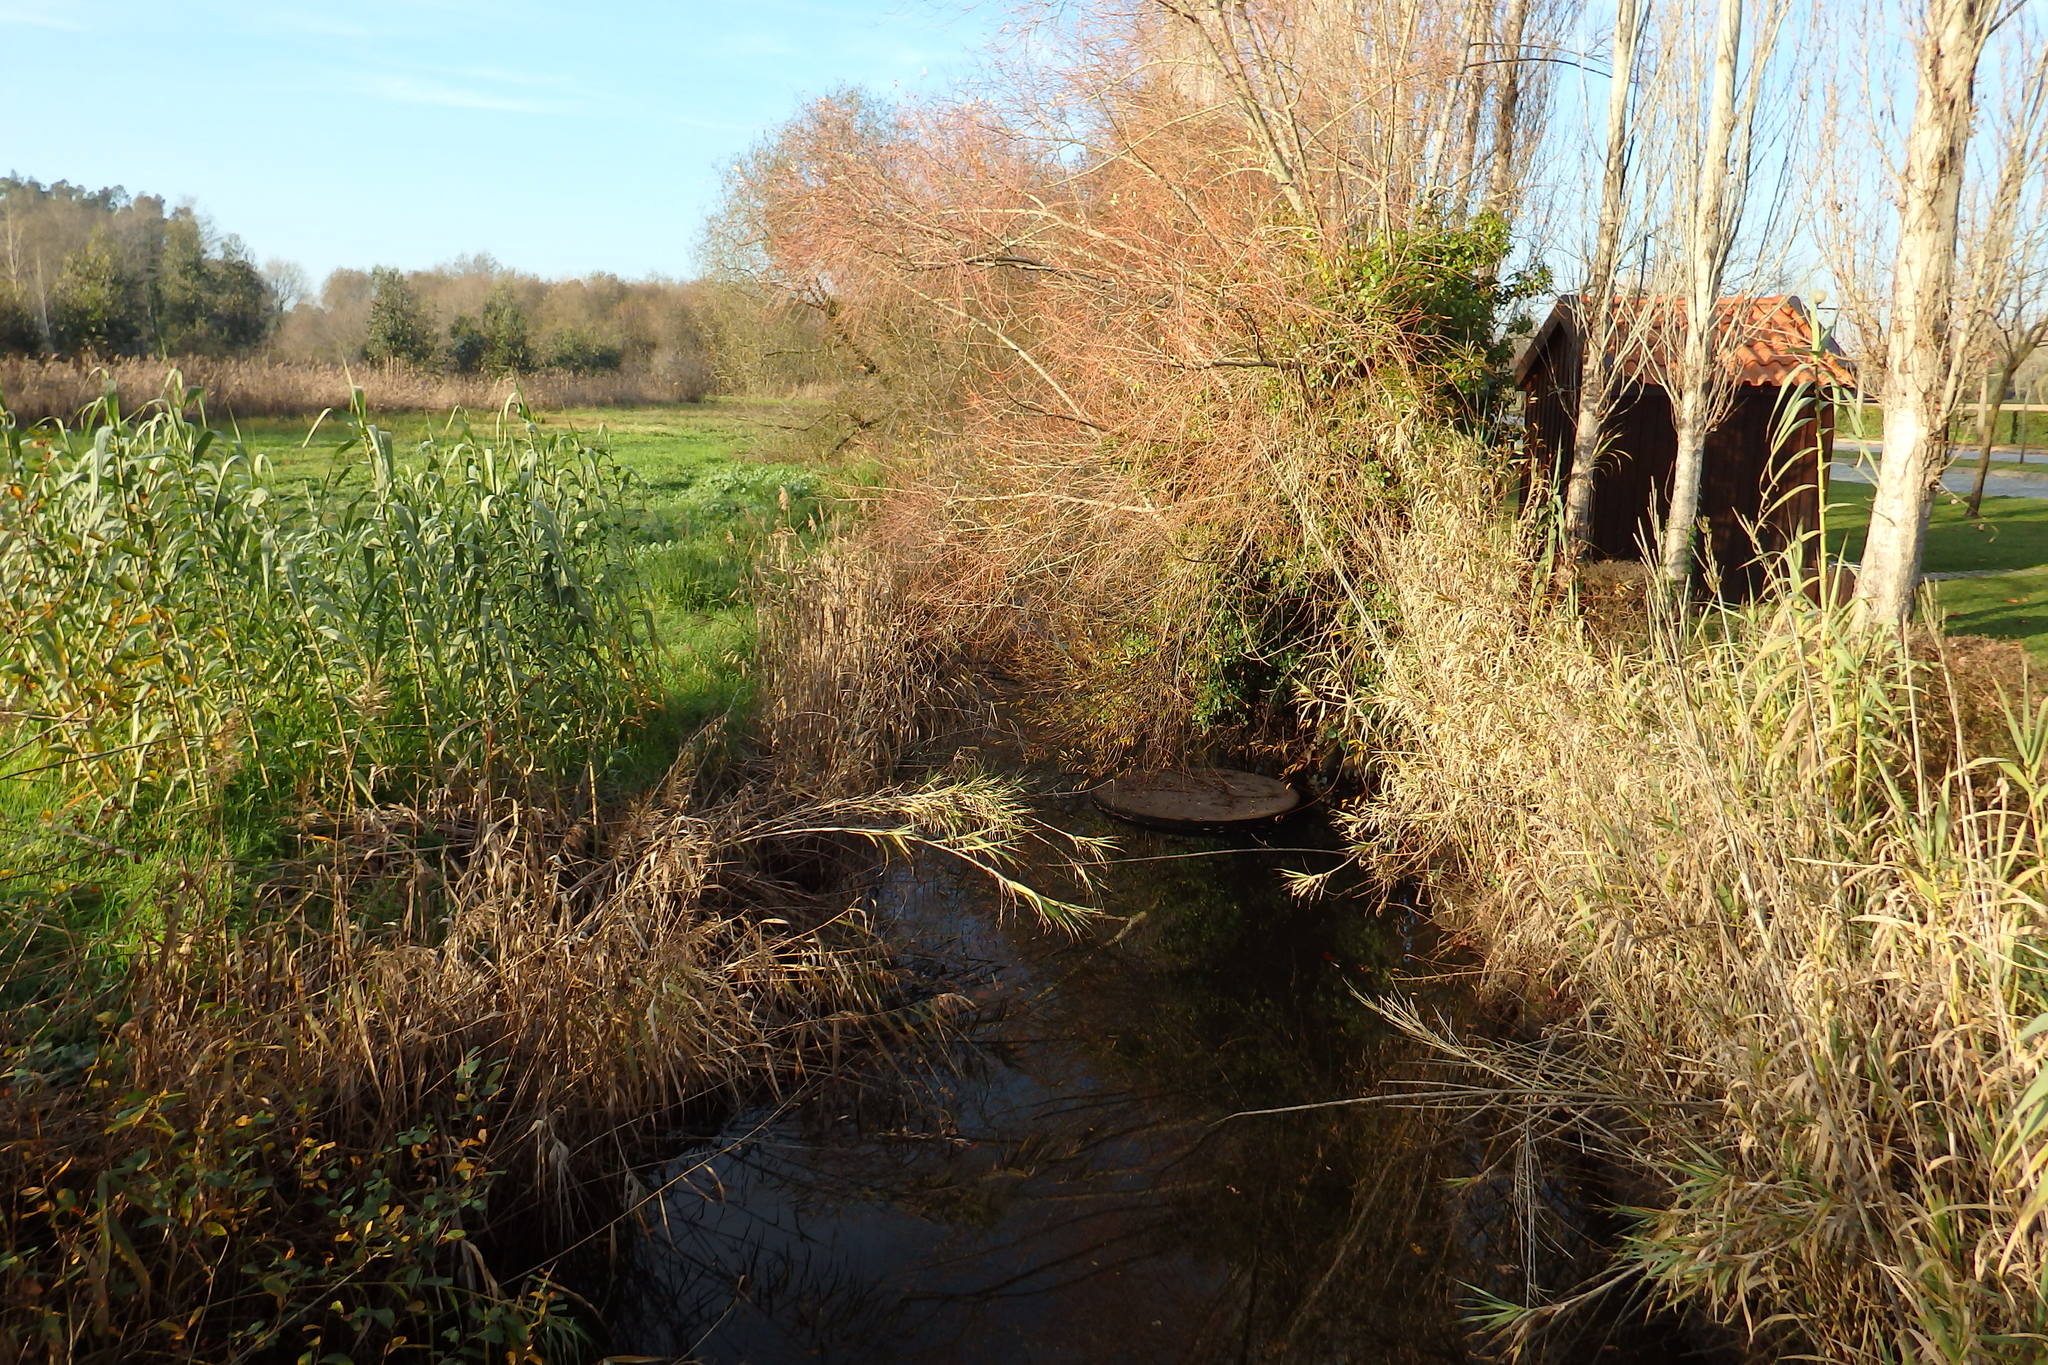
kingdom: Plantae
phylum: Tracheophyta
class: Liliopsida
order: Poales
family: Poaceae
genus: Arundo
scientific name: Arundo donax
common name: Giant reed
